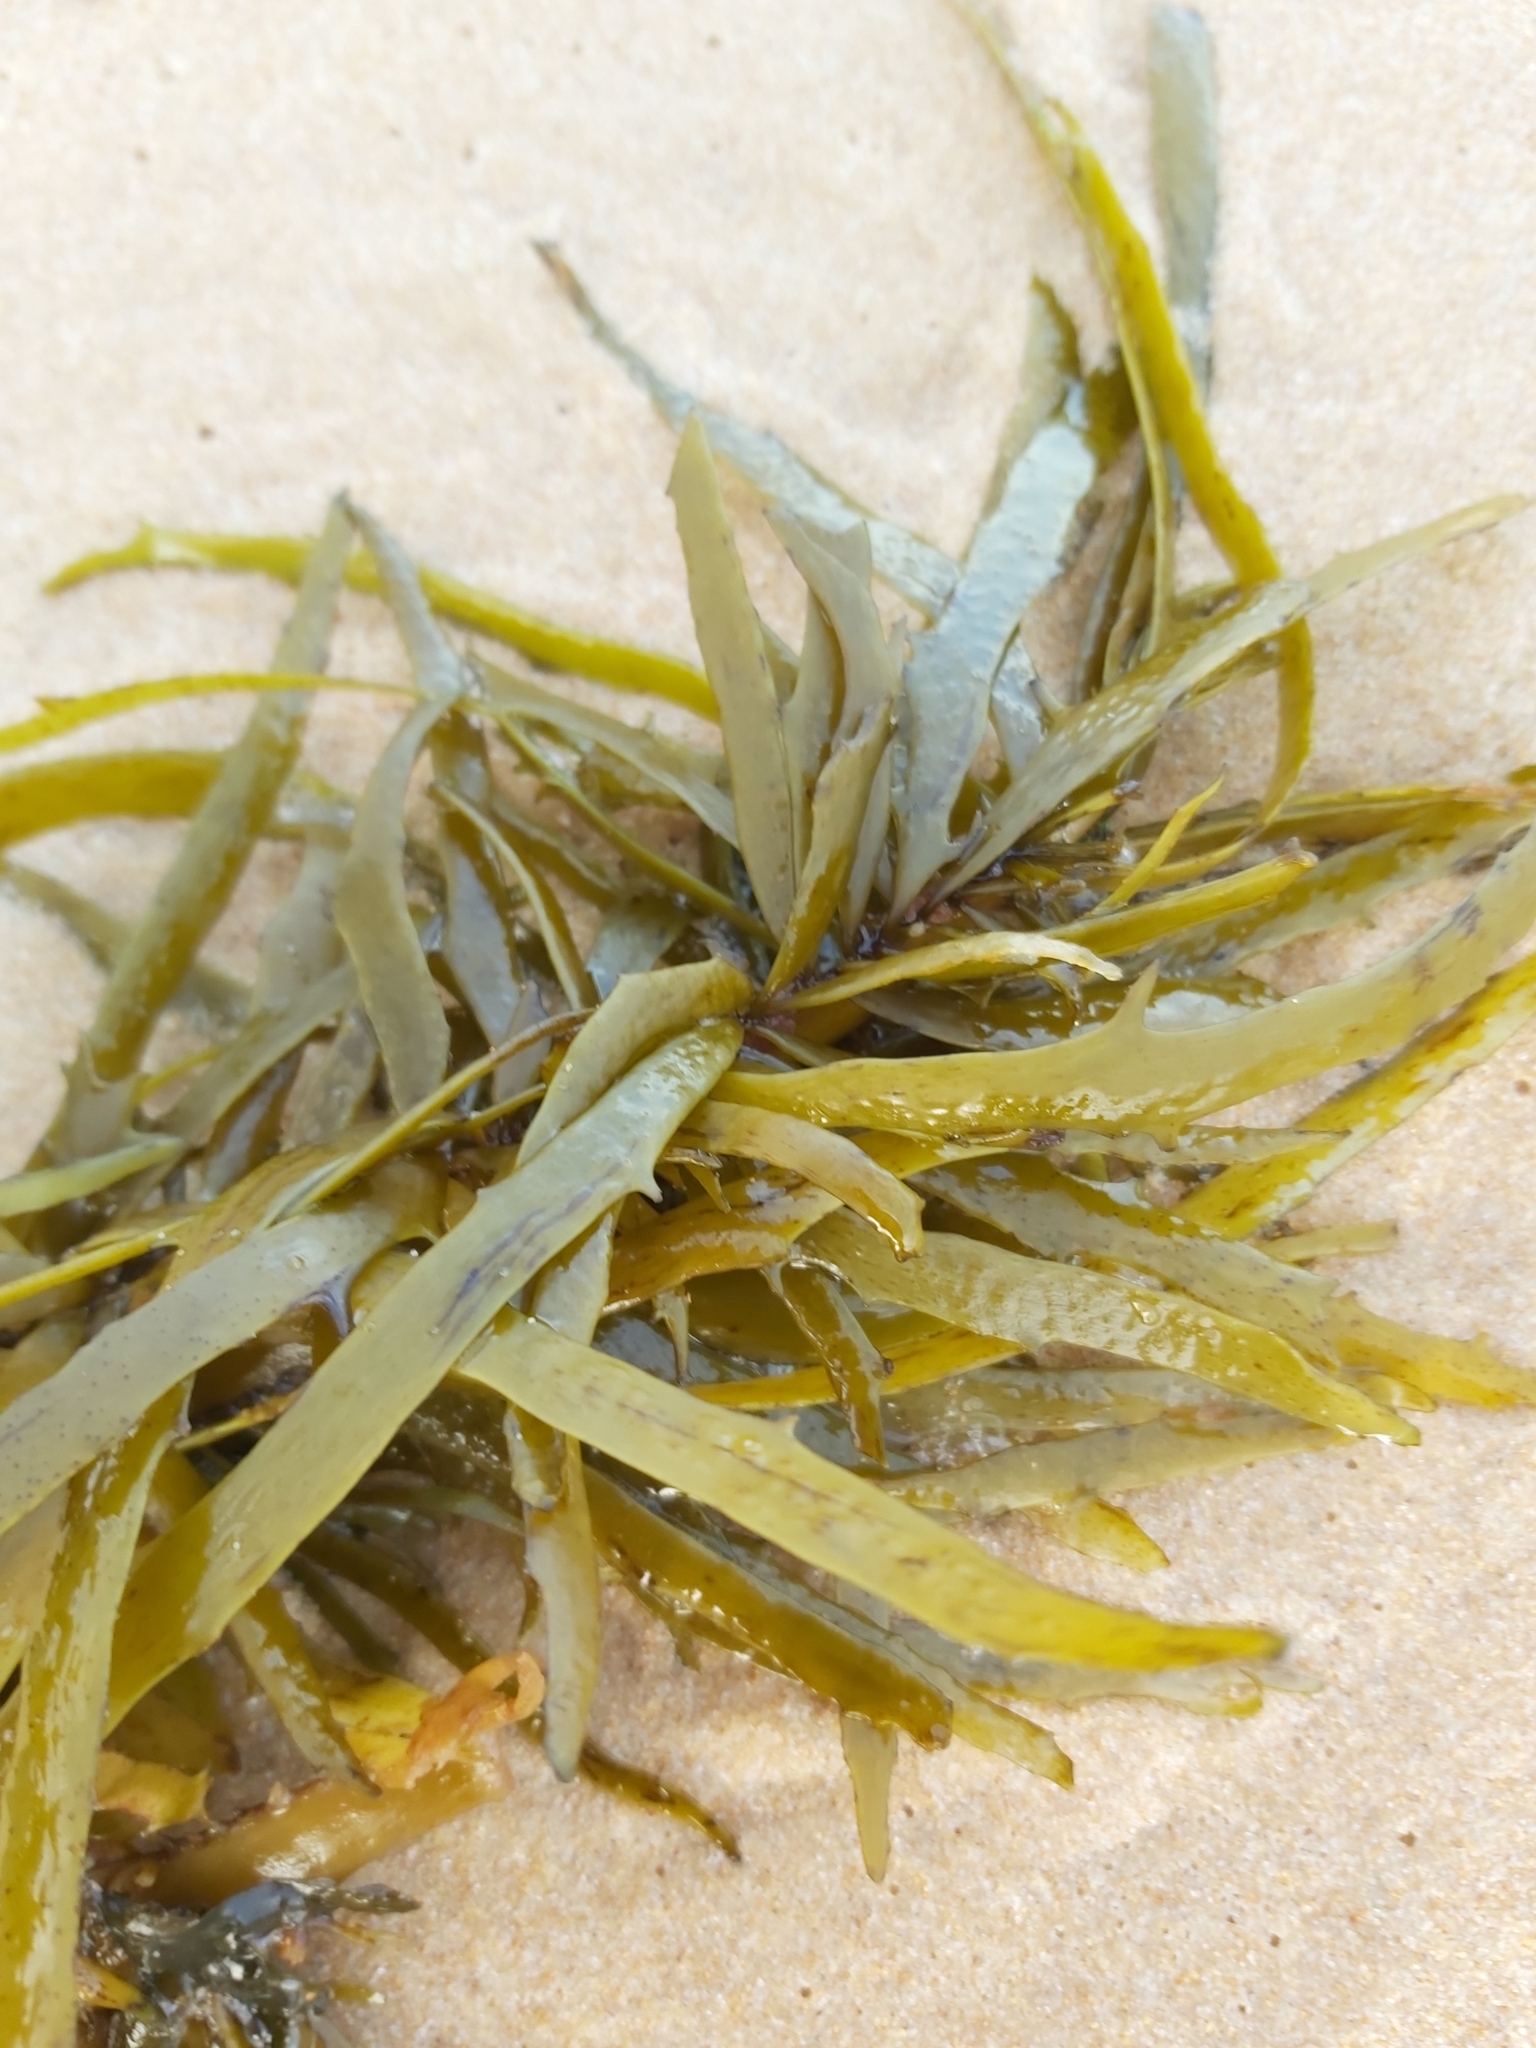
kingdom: Chromista
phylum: Ochrophyta
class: Phaeophyceae
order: Fucales
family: Seirococcaceae
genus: Phyllospora
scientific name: Phyllospora
